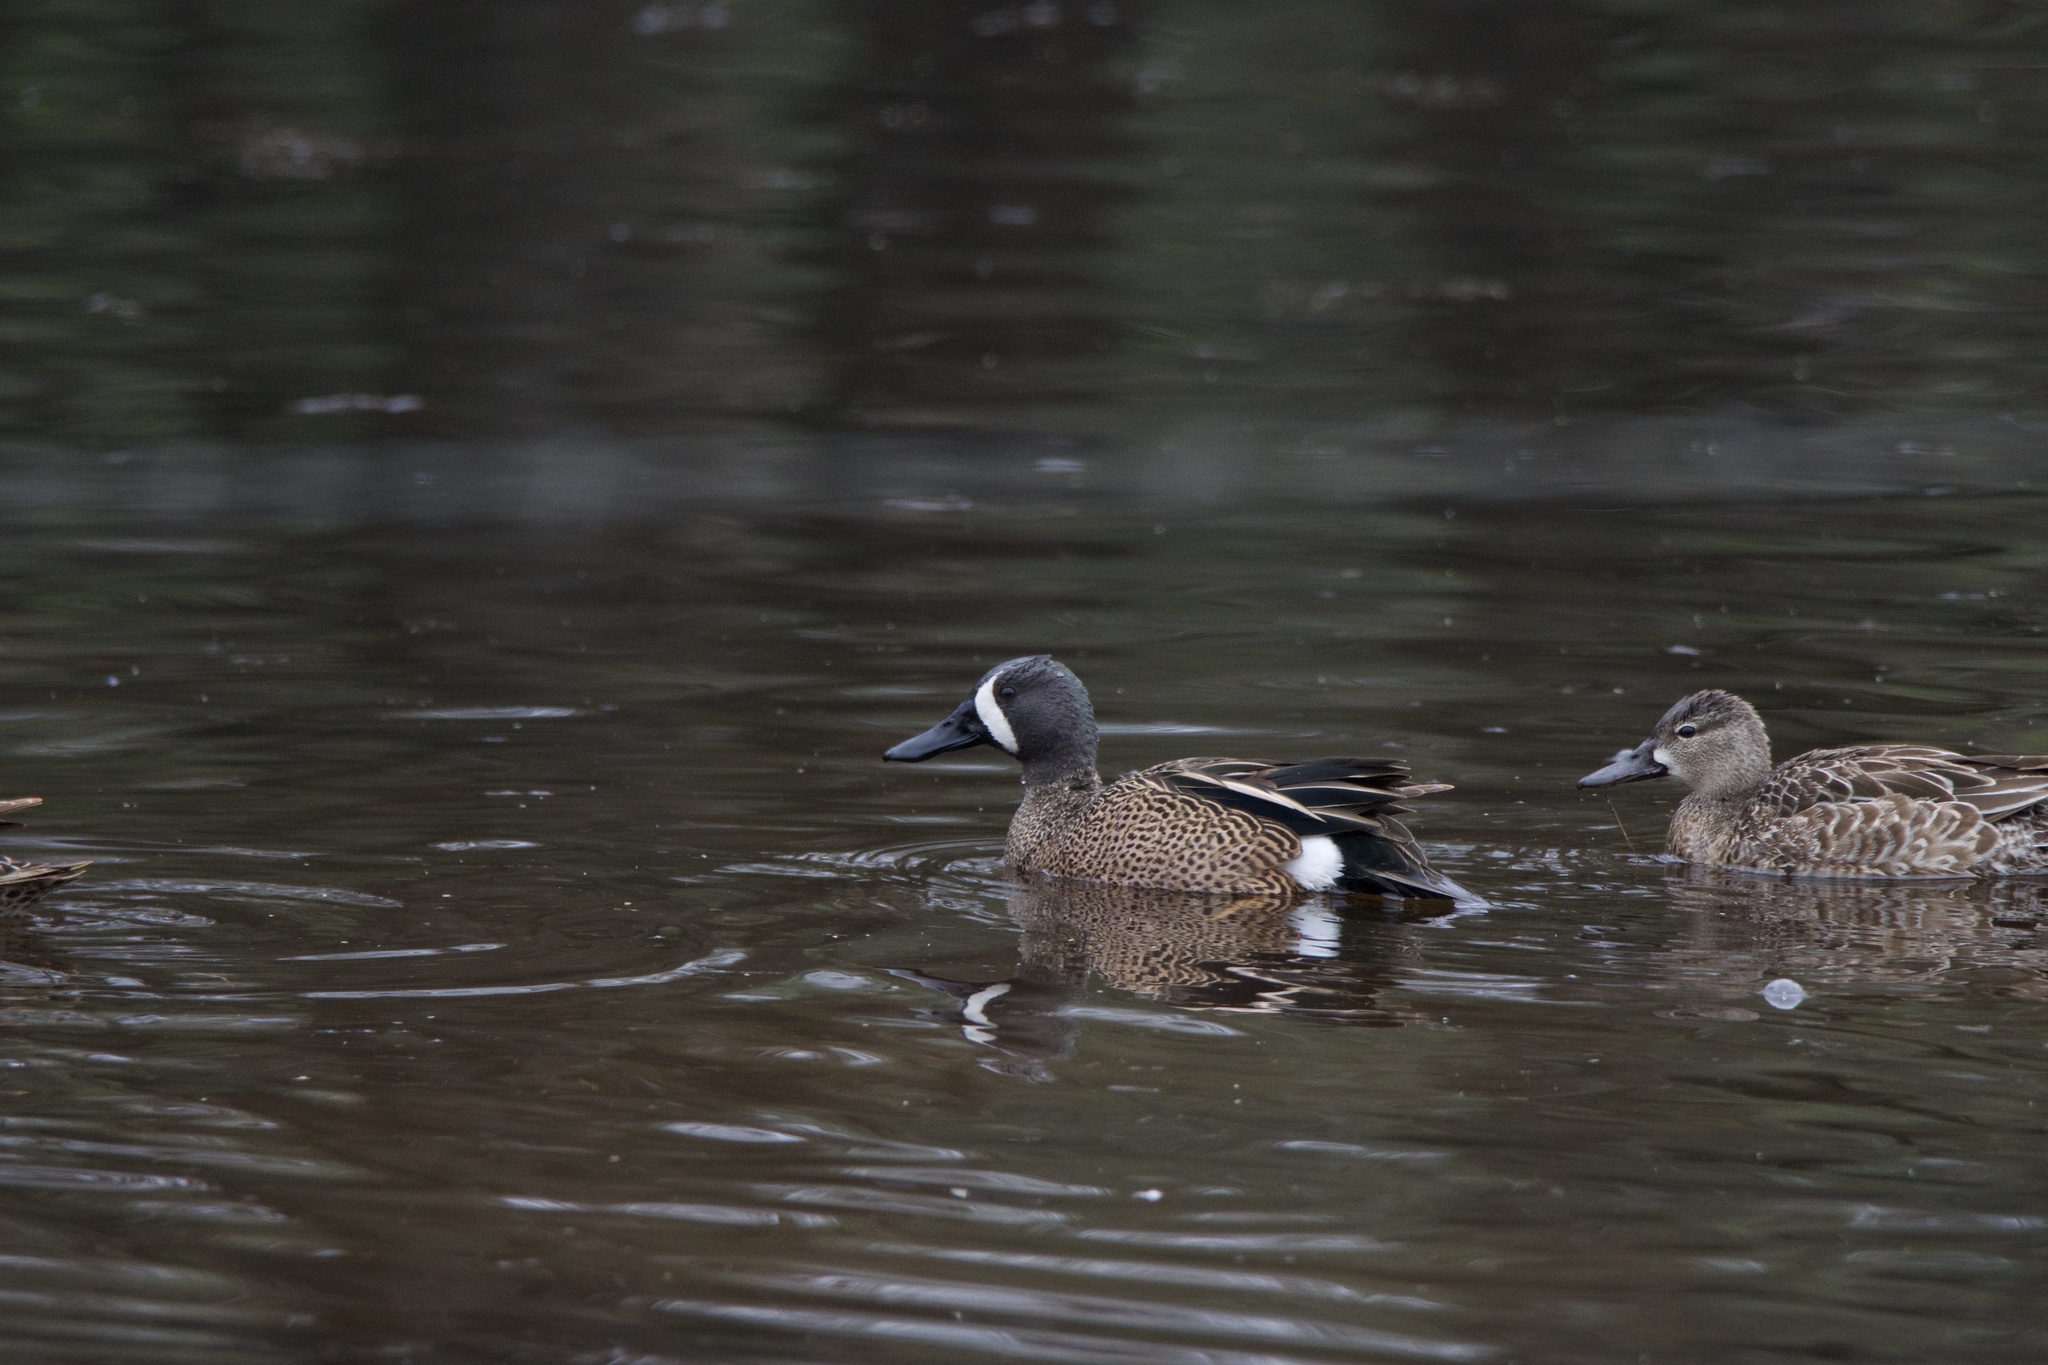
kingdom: Animalia
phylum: Chordata
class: Aves
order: Anseriformes
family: Anatidae
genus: Spatula
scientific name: Spatula discors
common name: Blue-winged teal
